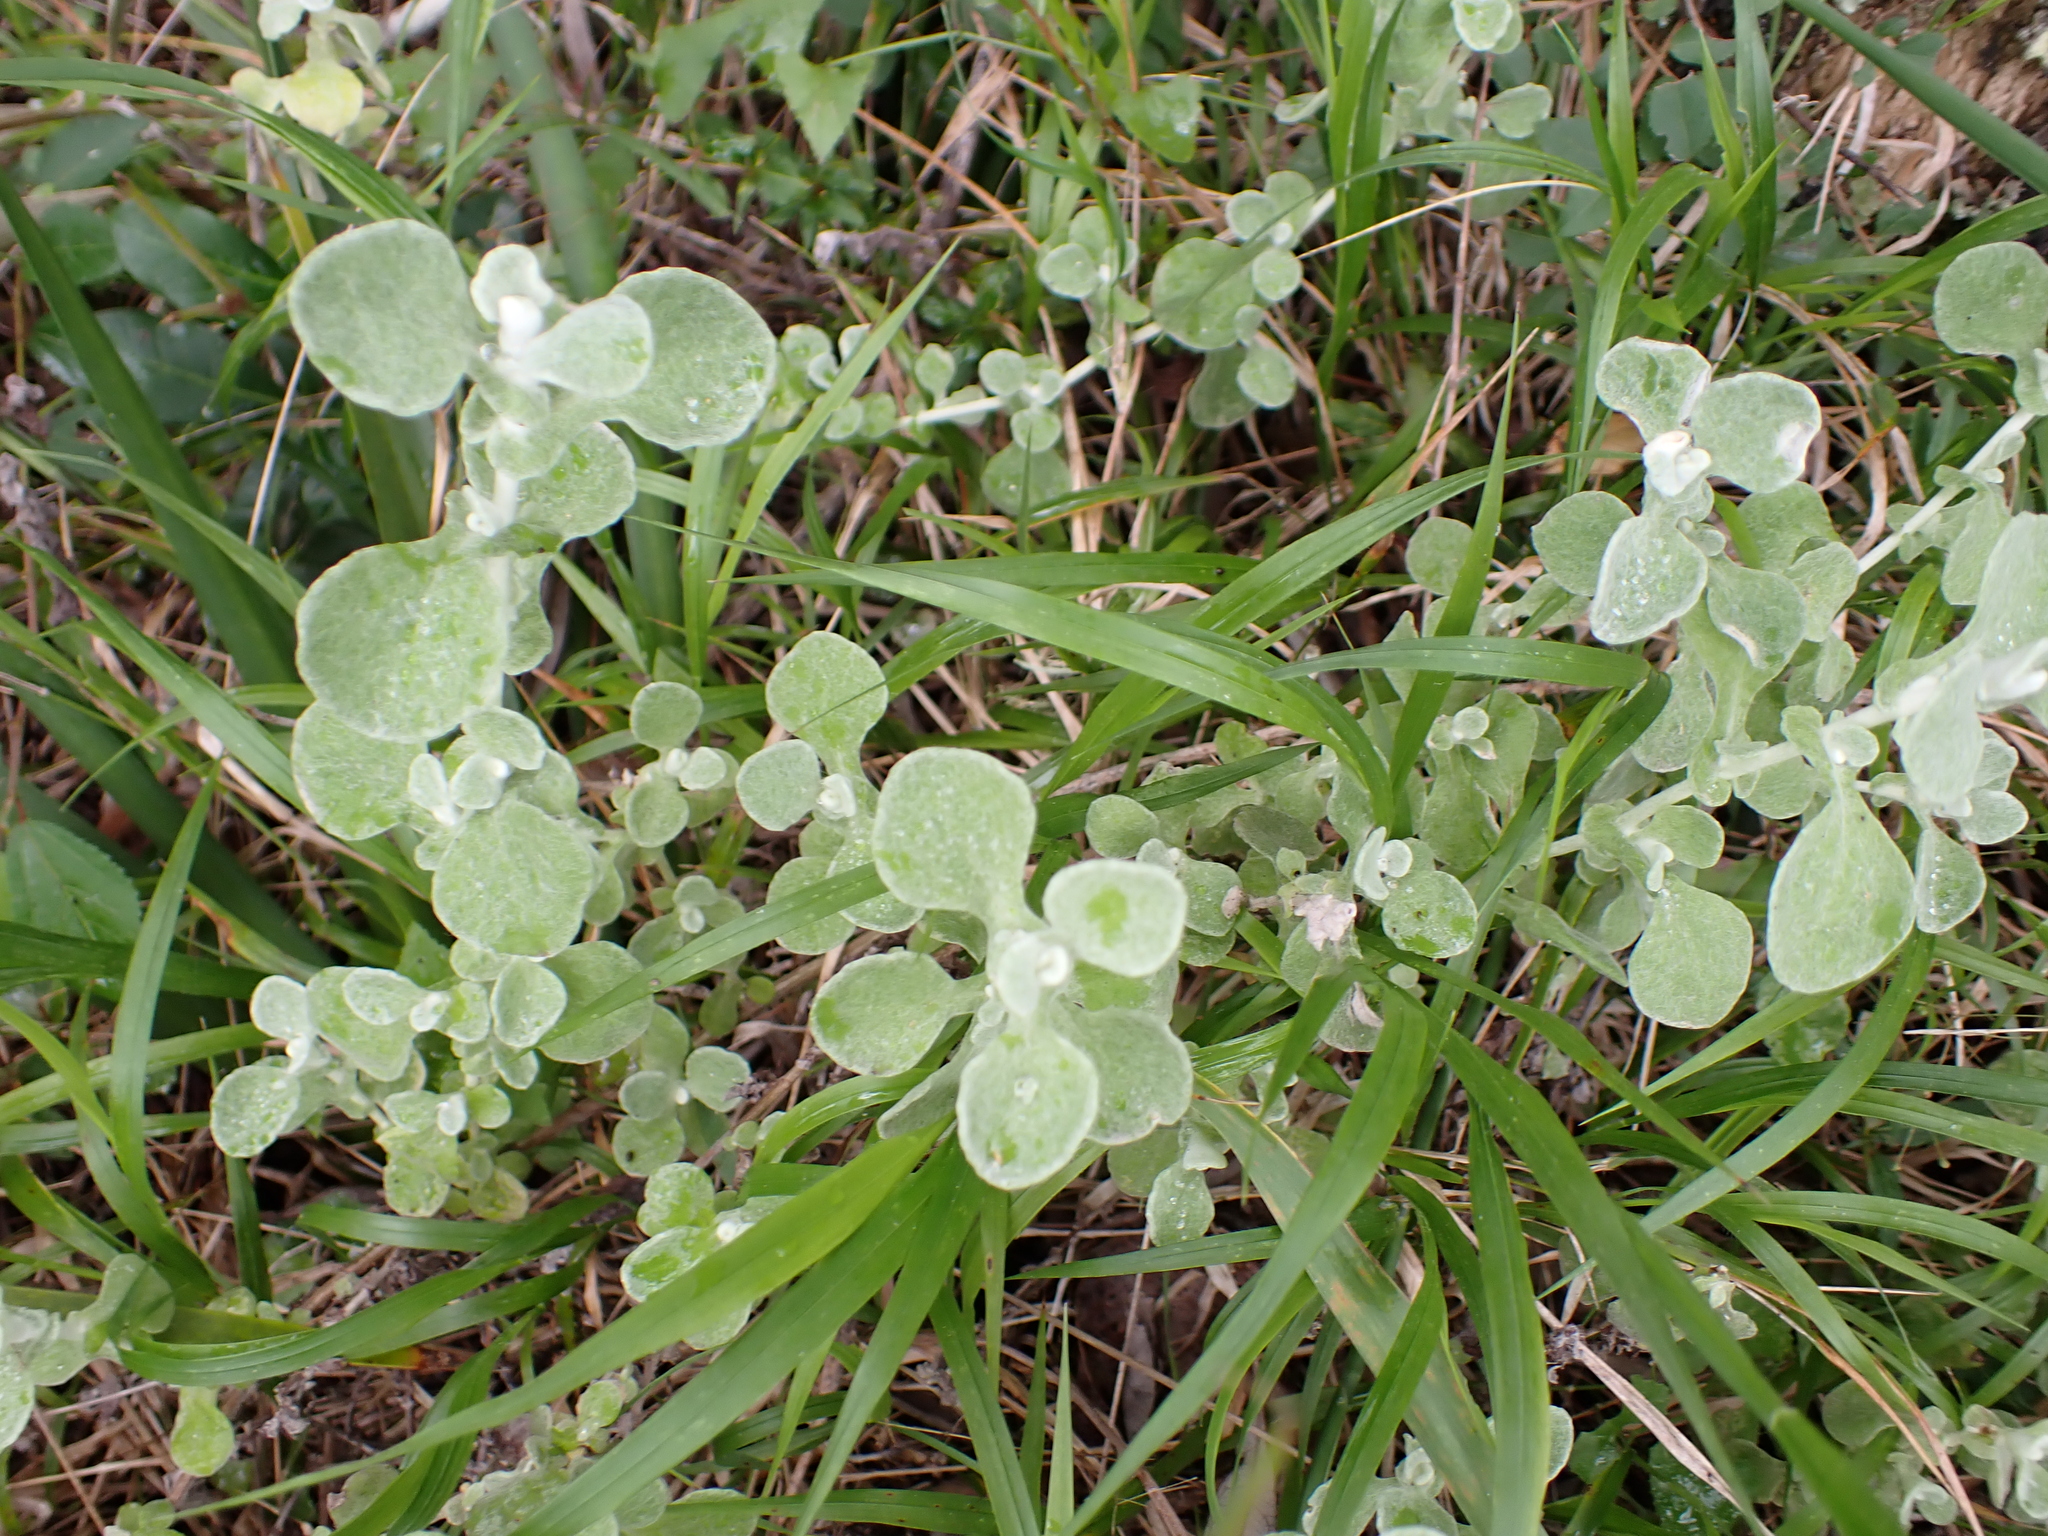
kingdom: Plantae
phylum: Tracheophyta
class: Magnoliopsida
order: Asterales
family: Asteraceae
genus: Helichrysum
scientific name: Helichrysum petiolare
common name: Licorice-plant
